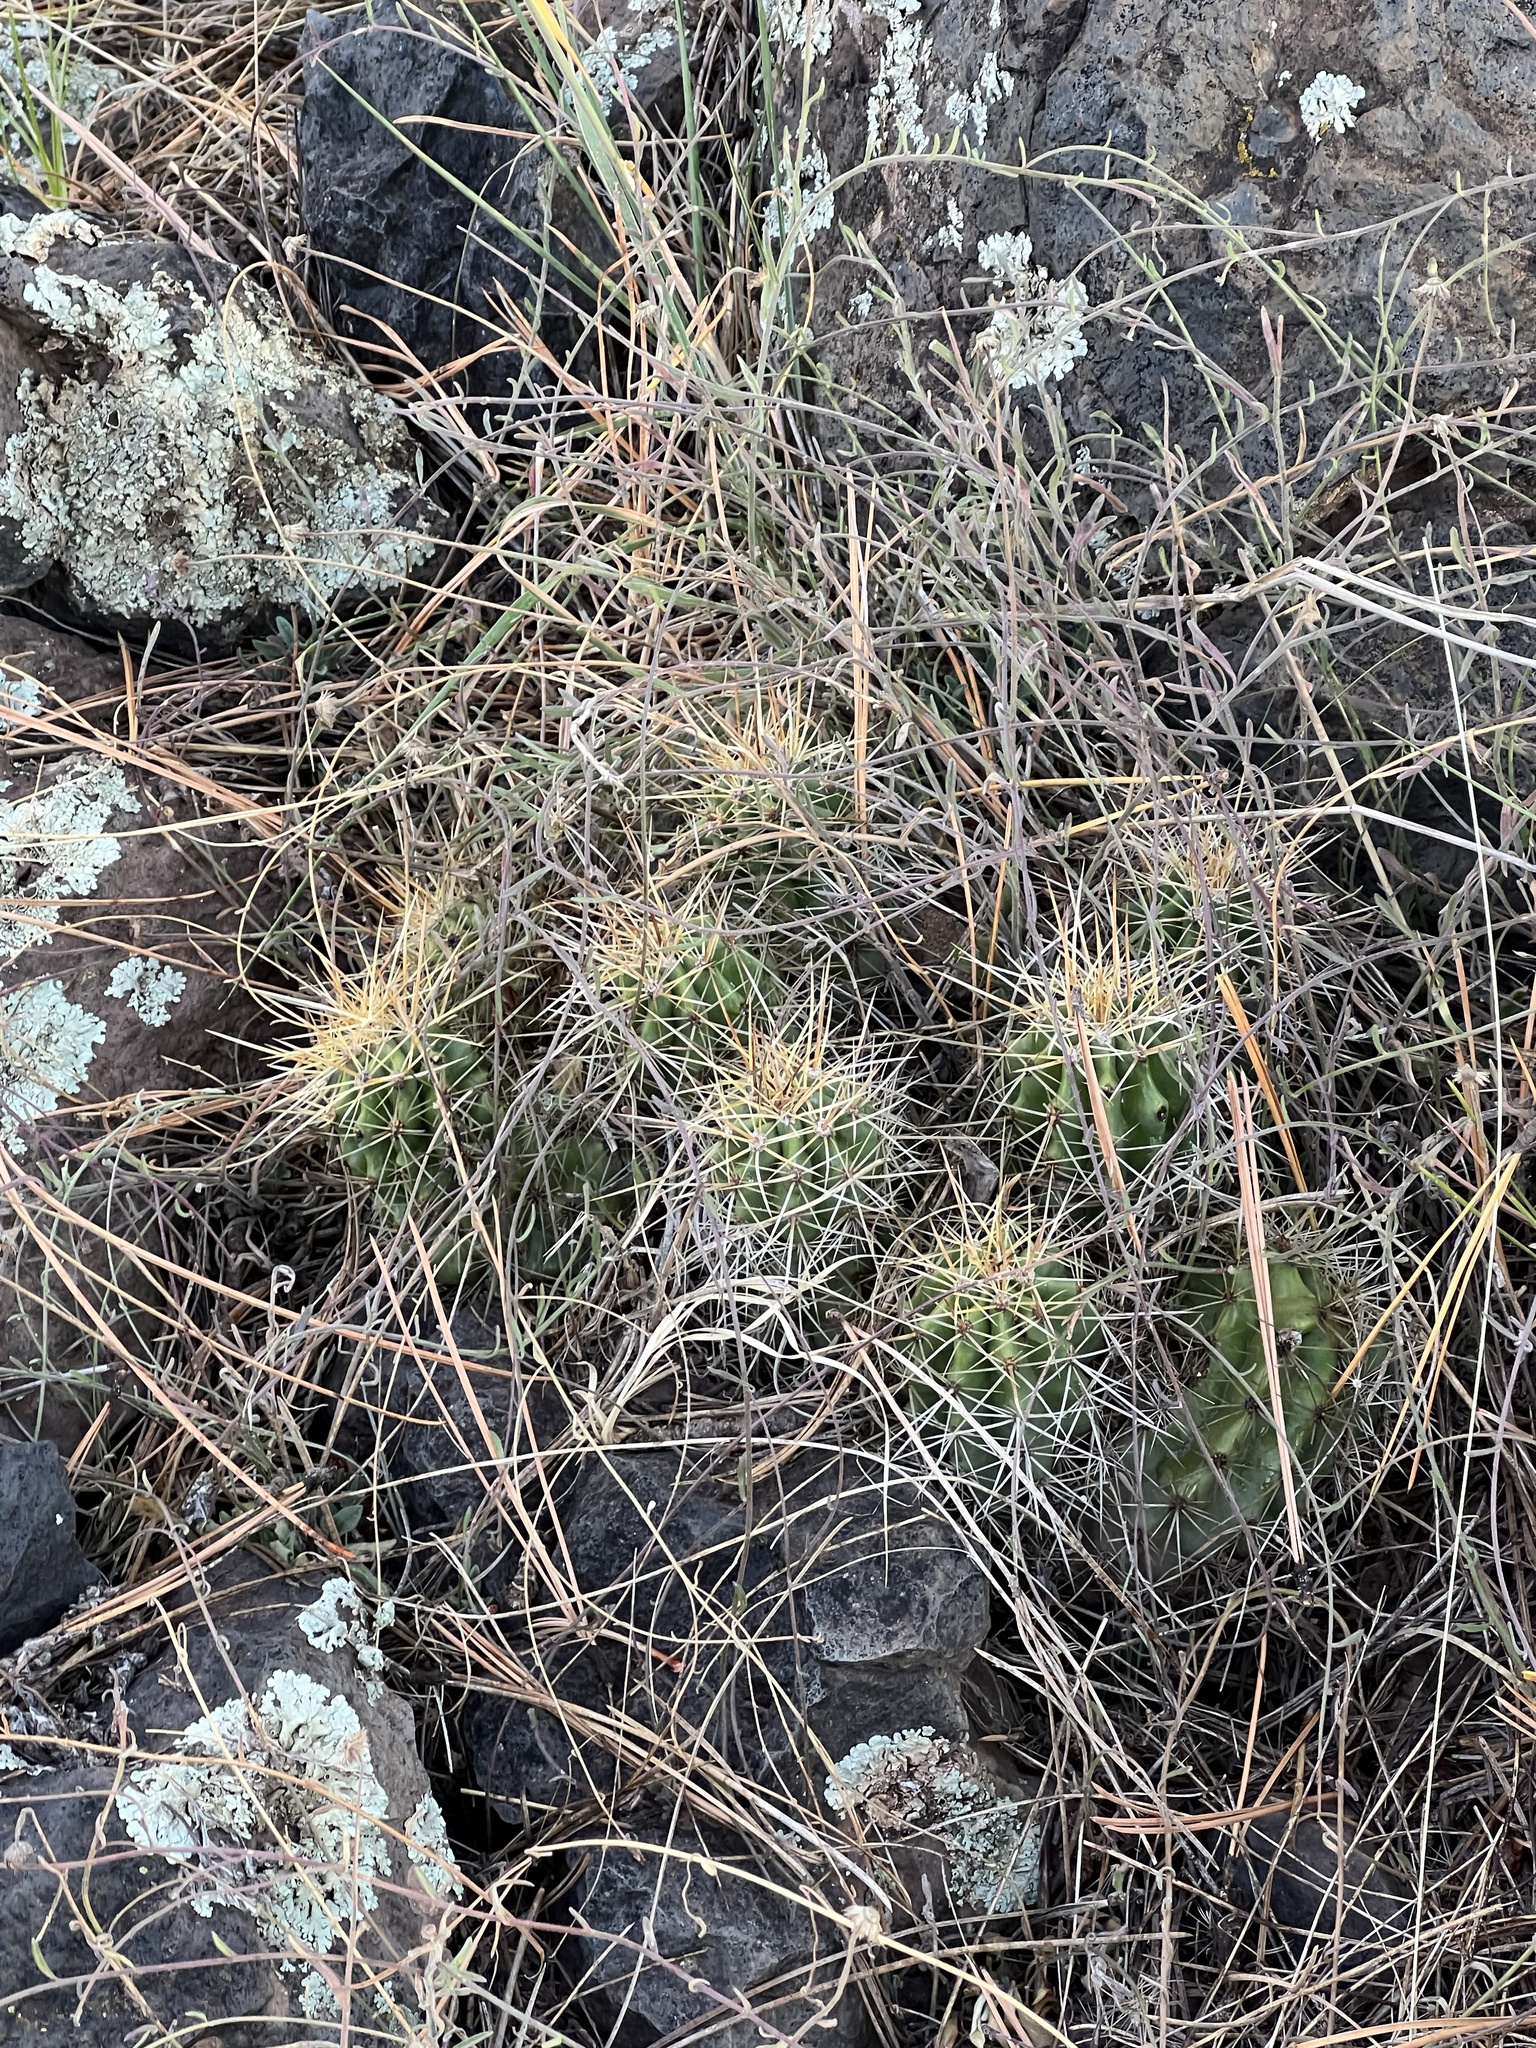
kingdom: Plantae
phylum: Tracheophyta
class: Magnoliopsida
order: Caryophyllales
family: Cactaceae
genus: Echinocereus
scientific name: Echinocereus bakeri
